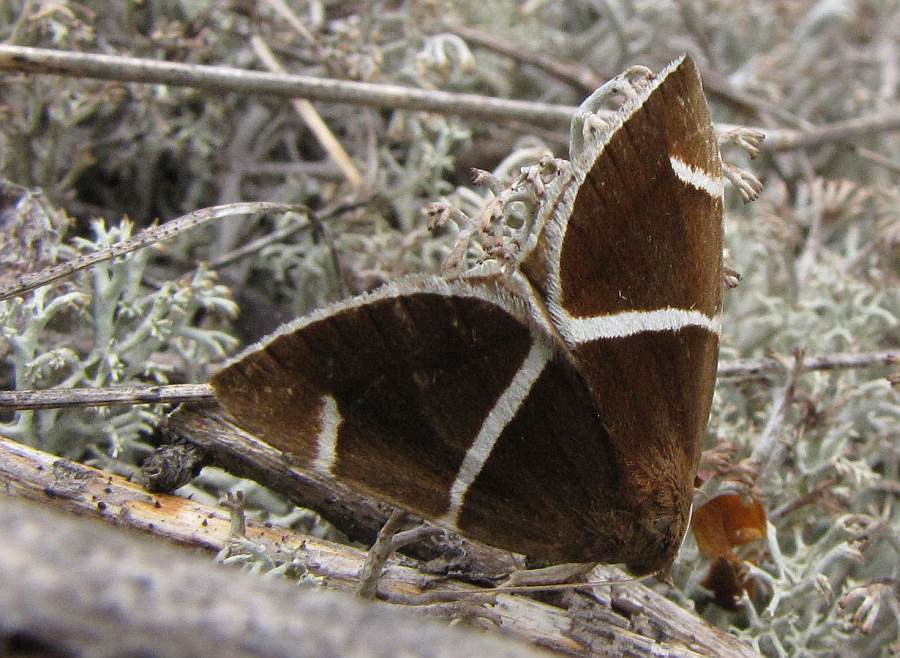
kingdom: Animalia
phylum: Arthropoda
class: Insecta
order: Lepidoptera
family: Erebidae
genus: Argyrostrotis
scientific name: Argyrostrotis anilis
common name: Short-lined chocolate
